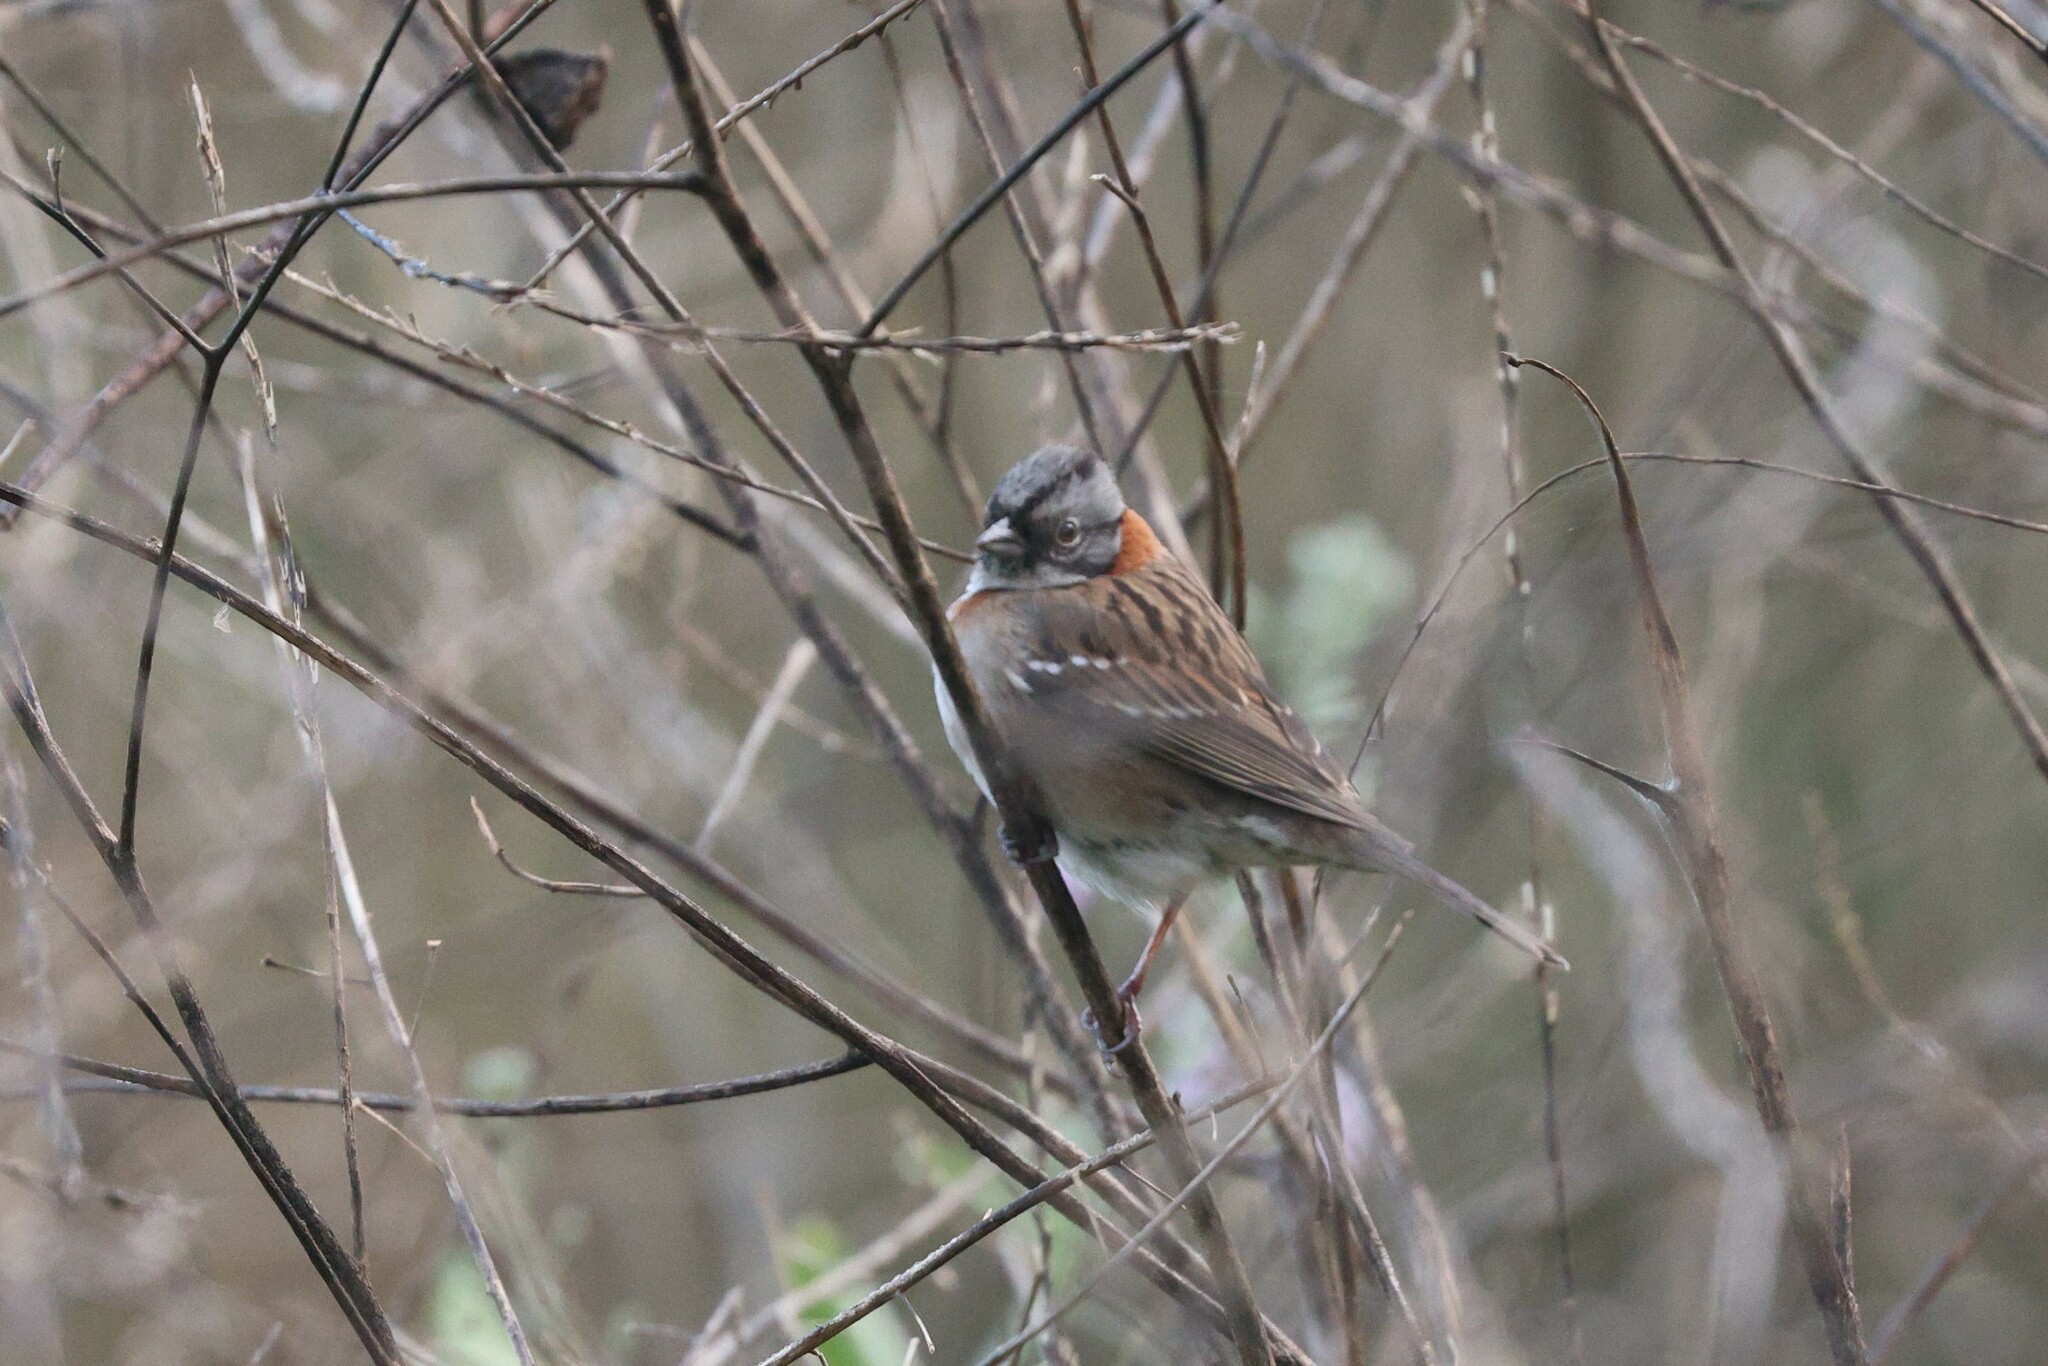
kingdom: Animalia
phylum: Chordata
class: Aves
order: Passeriformes
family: Passerellidae
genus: Zonotrichia
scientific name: Zonotrichia capensis
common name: Rufous-collared sparrow
